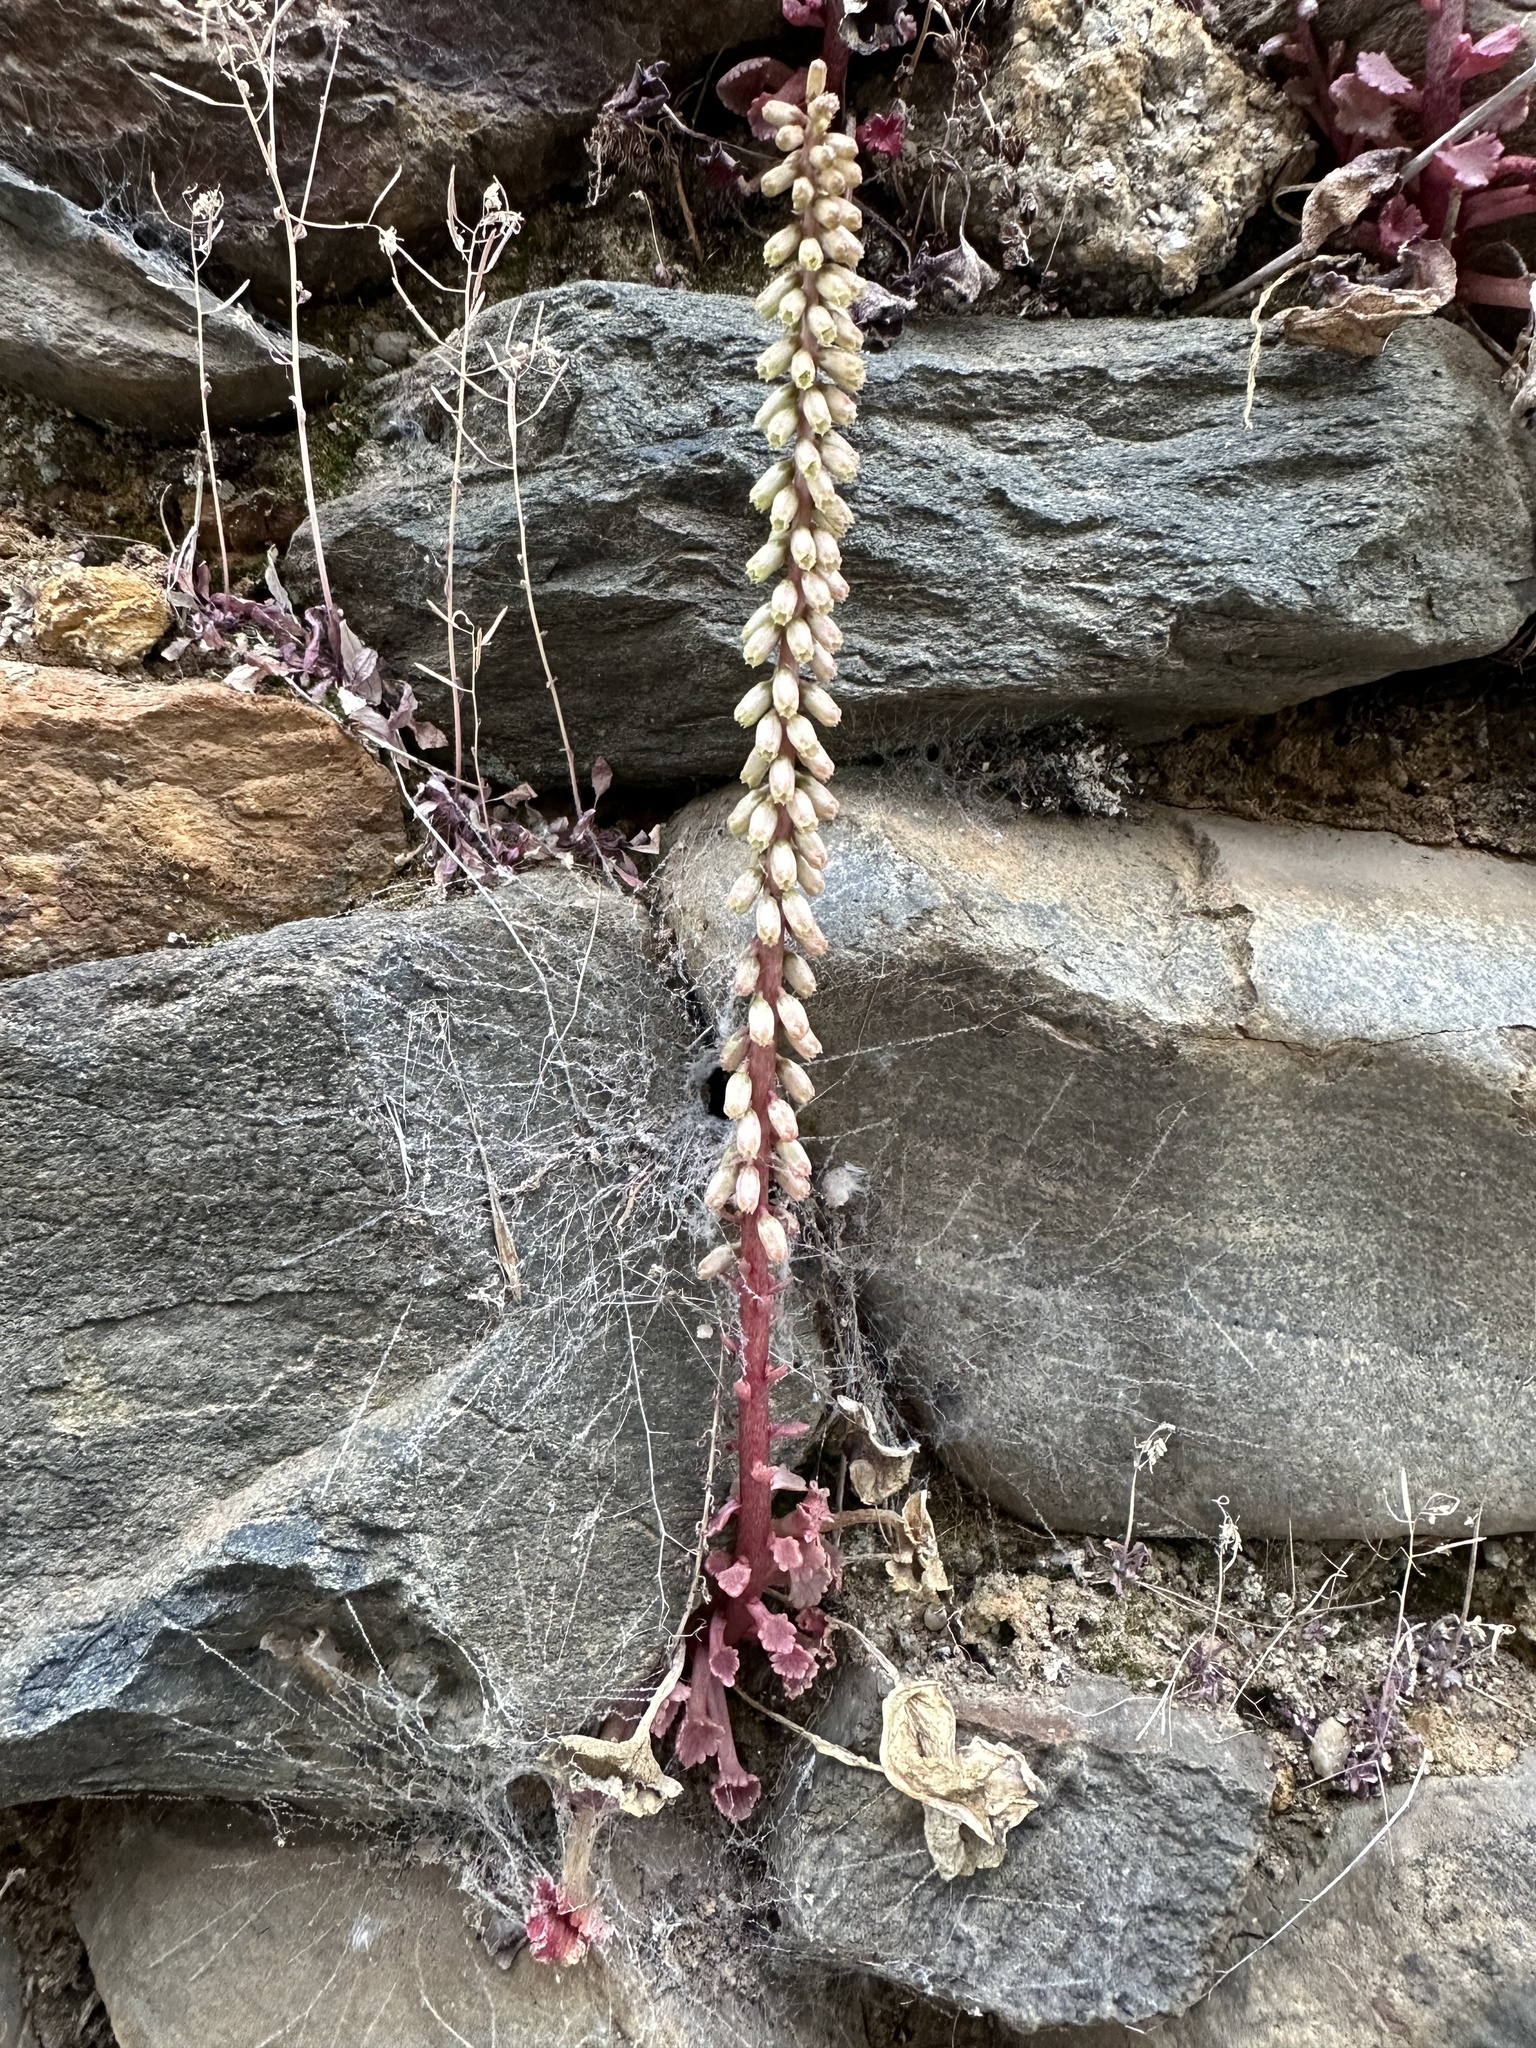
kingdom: Plantae
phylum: Tracheophyta
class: Magnoliopsida
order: Saxifragales
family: Crassulaceae
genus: Umbilicus
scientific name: Umbilicus rupestris
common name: Navelwort
